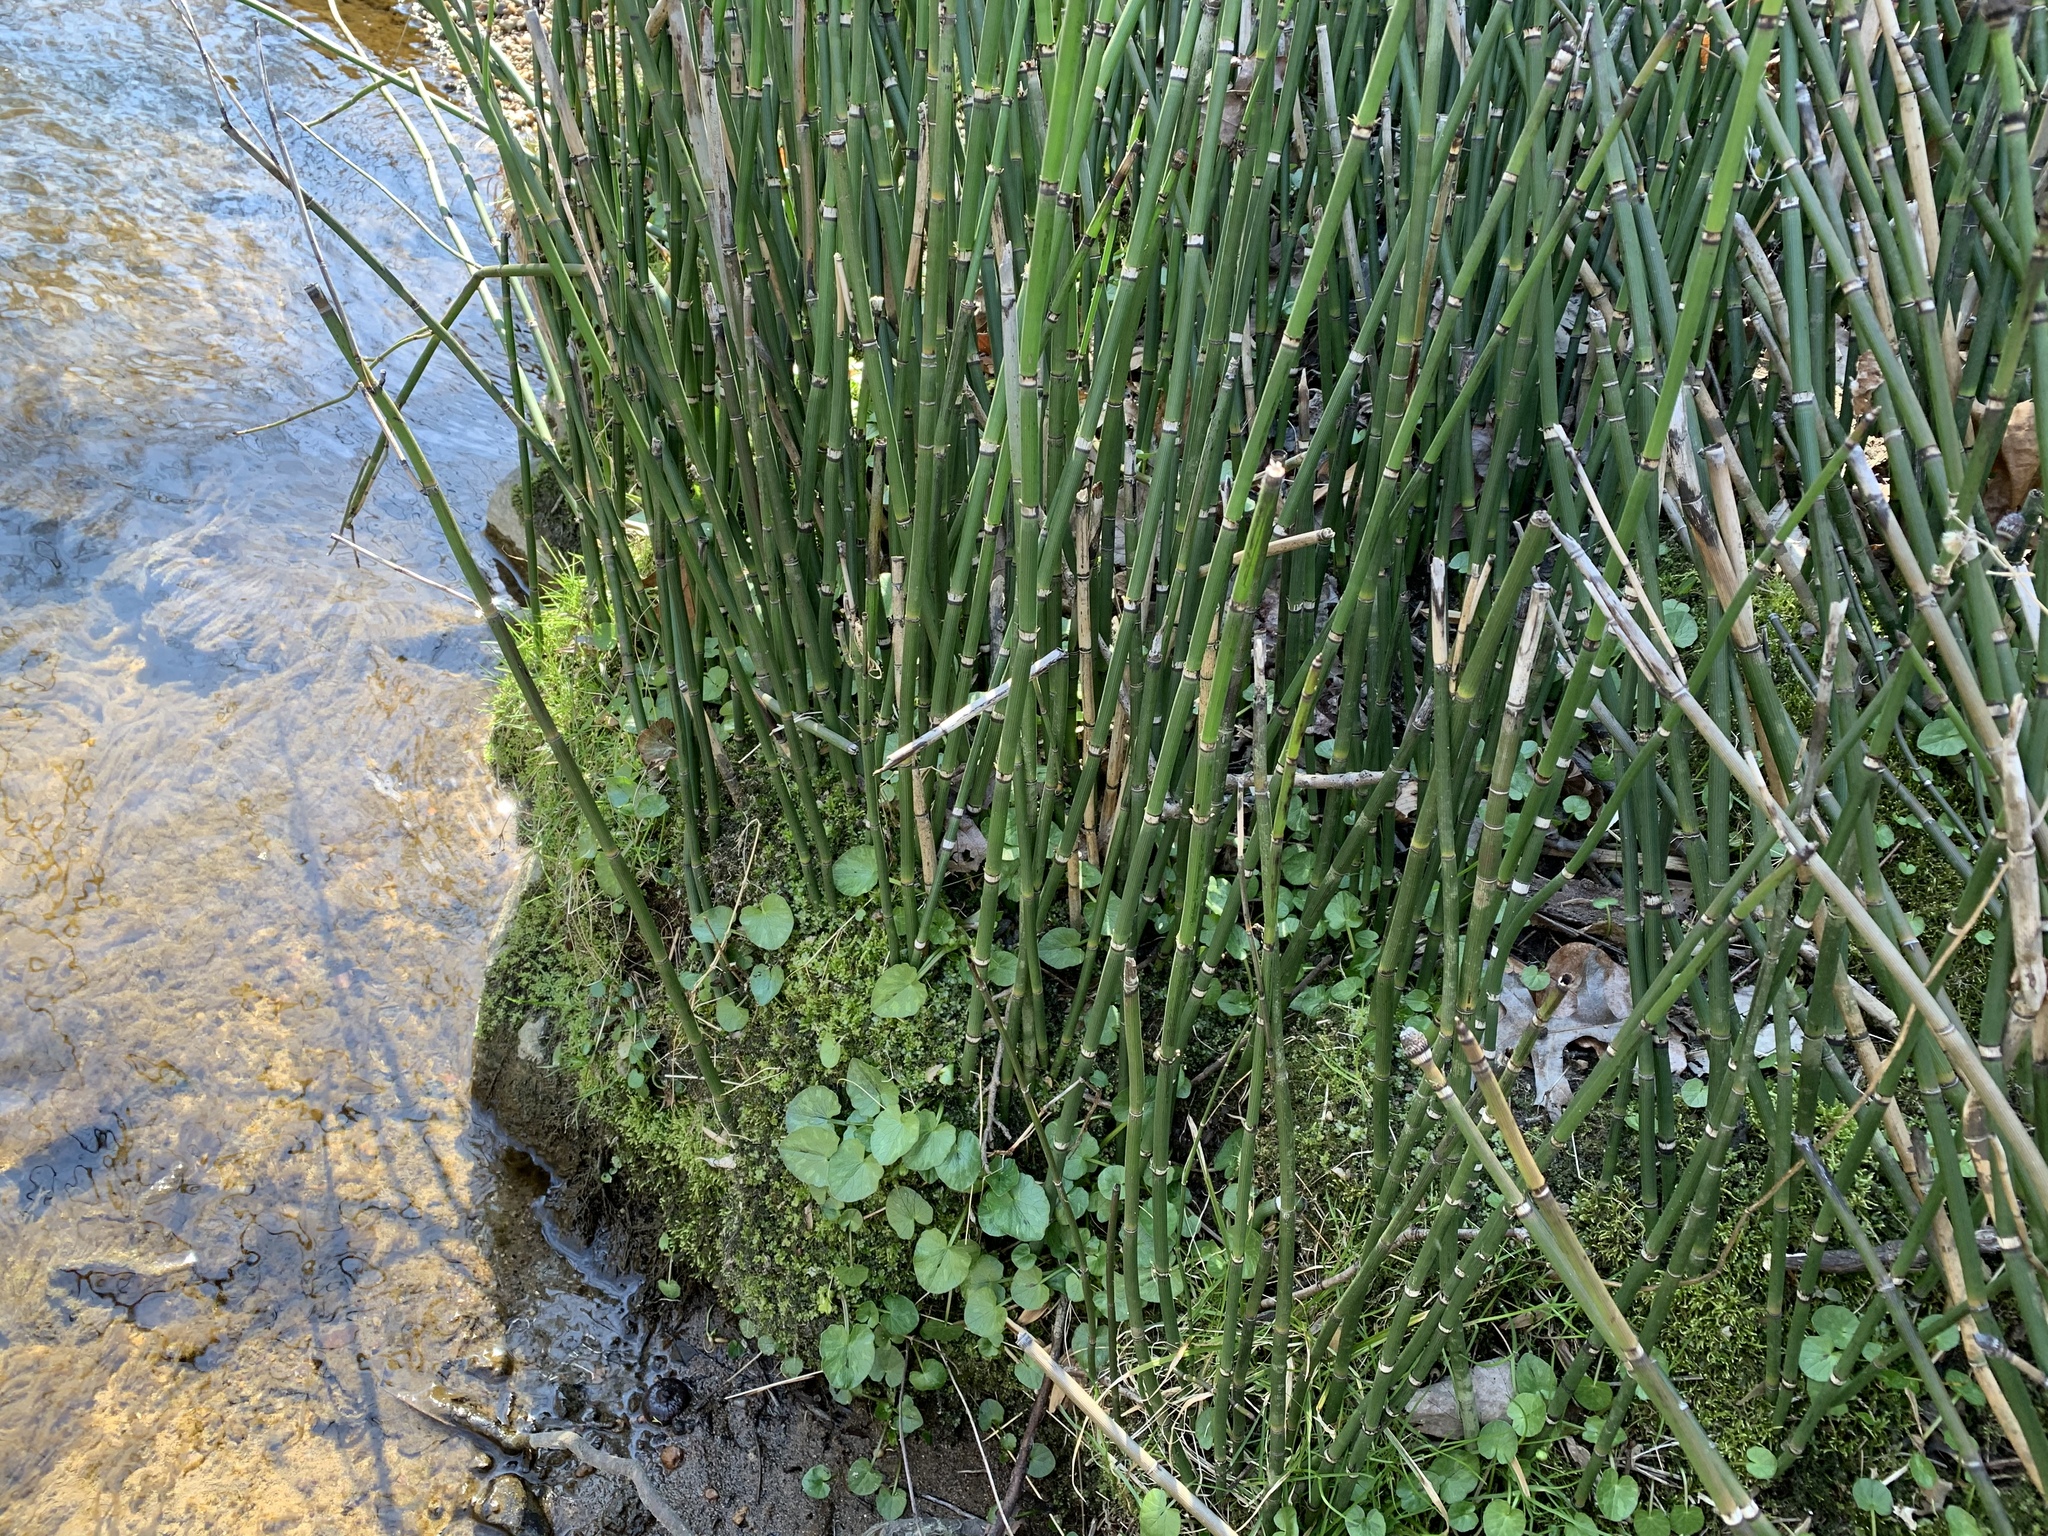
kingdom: Plantae
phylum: Tracheophyta
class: Polypodiopsida
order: Equisetales
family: Equisetaceae
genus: Equisetum
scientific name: Equisetum praealtum
